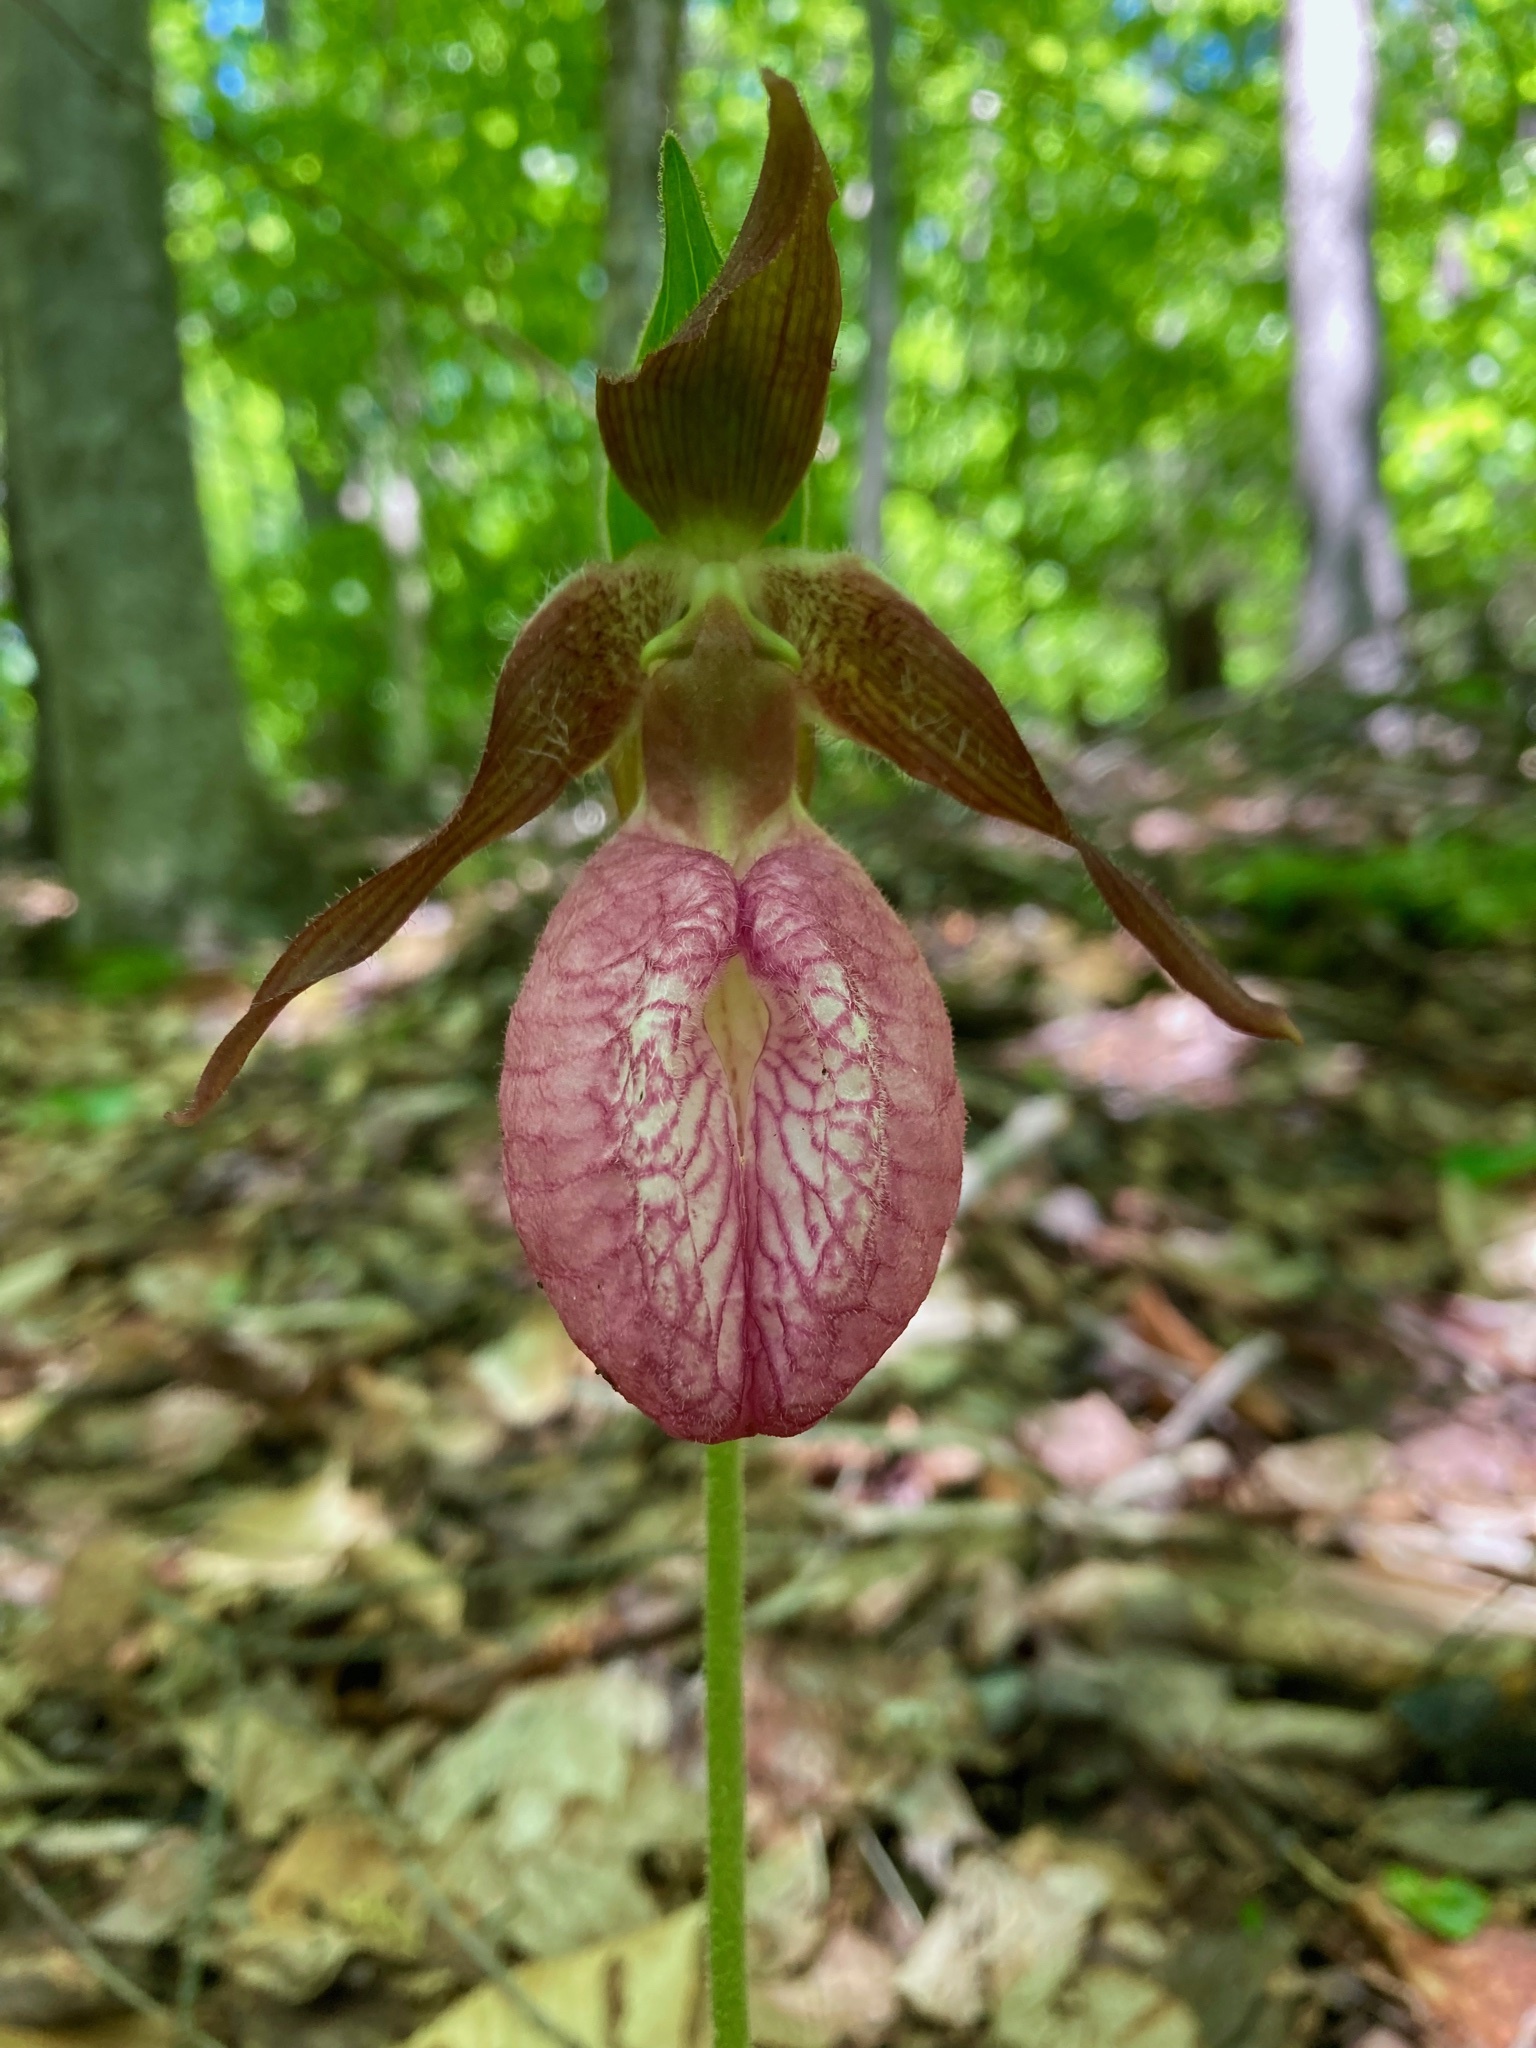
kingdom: Plantae
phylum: Tracheophyta
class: Liliopsida
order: Asparagales
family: Orchidaceae
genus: Cypripedium
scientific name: Cypripedium acaule
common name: Pink lady's-slipper
